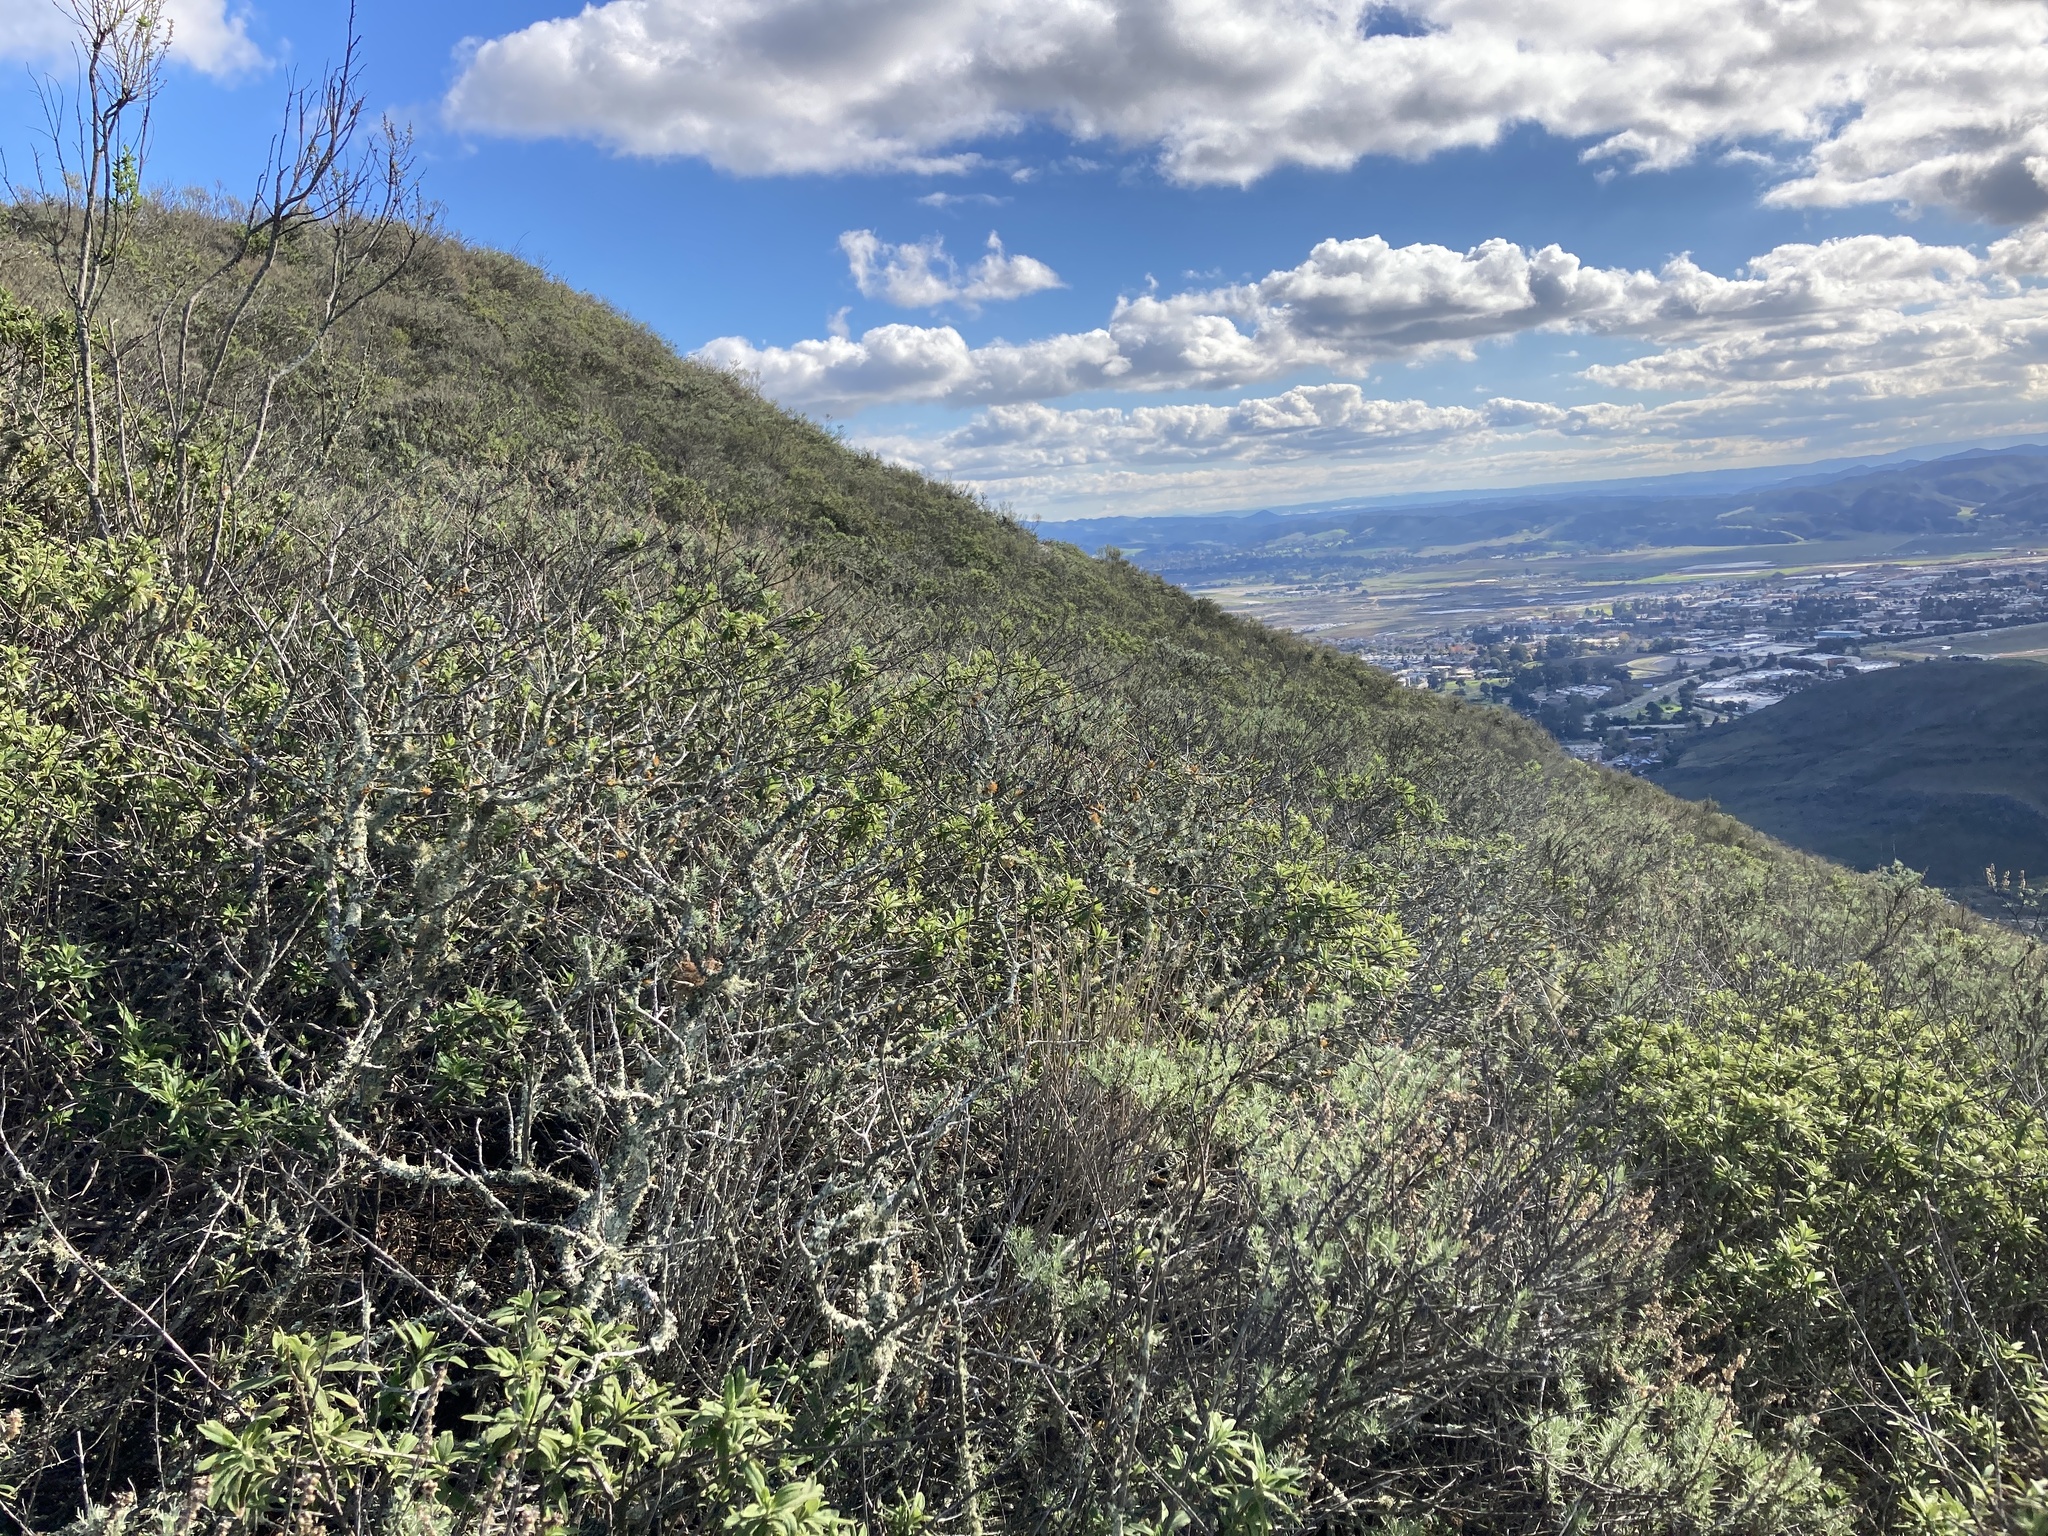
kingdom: Plantae
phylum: Tracheophyta
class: Magnoliopsida
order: Asterales
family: Asteraceae
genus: Artemisia
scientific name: Artemisia californica
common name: California sagebrush
